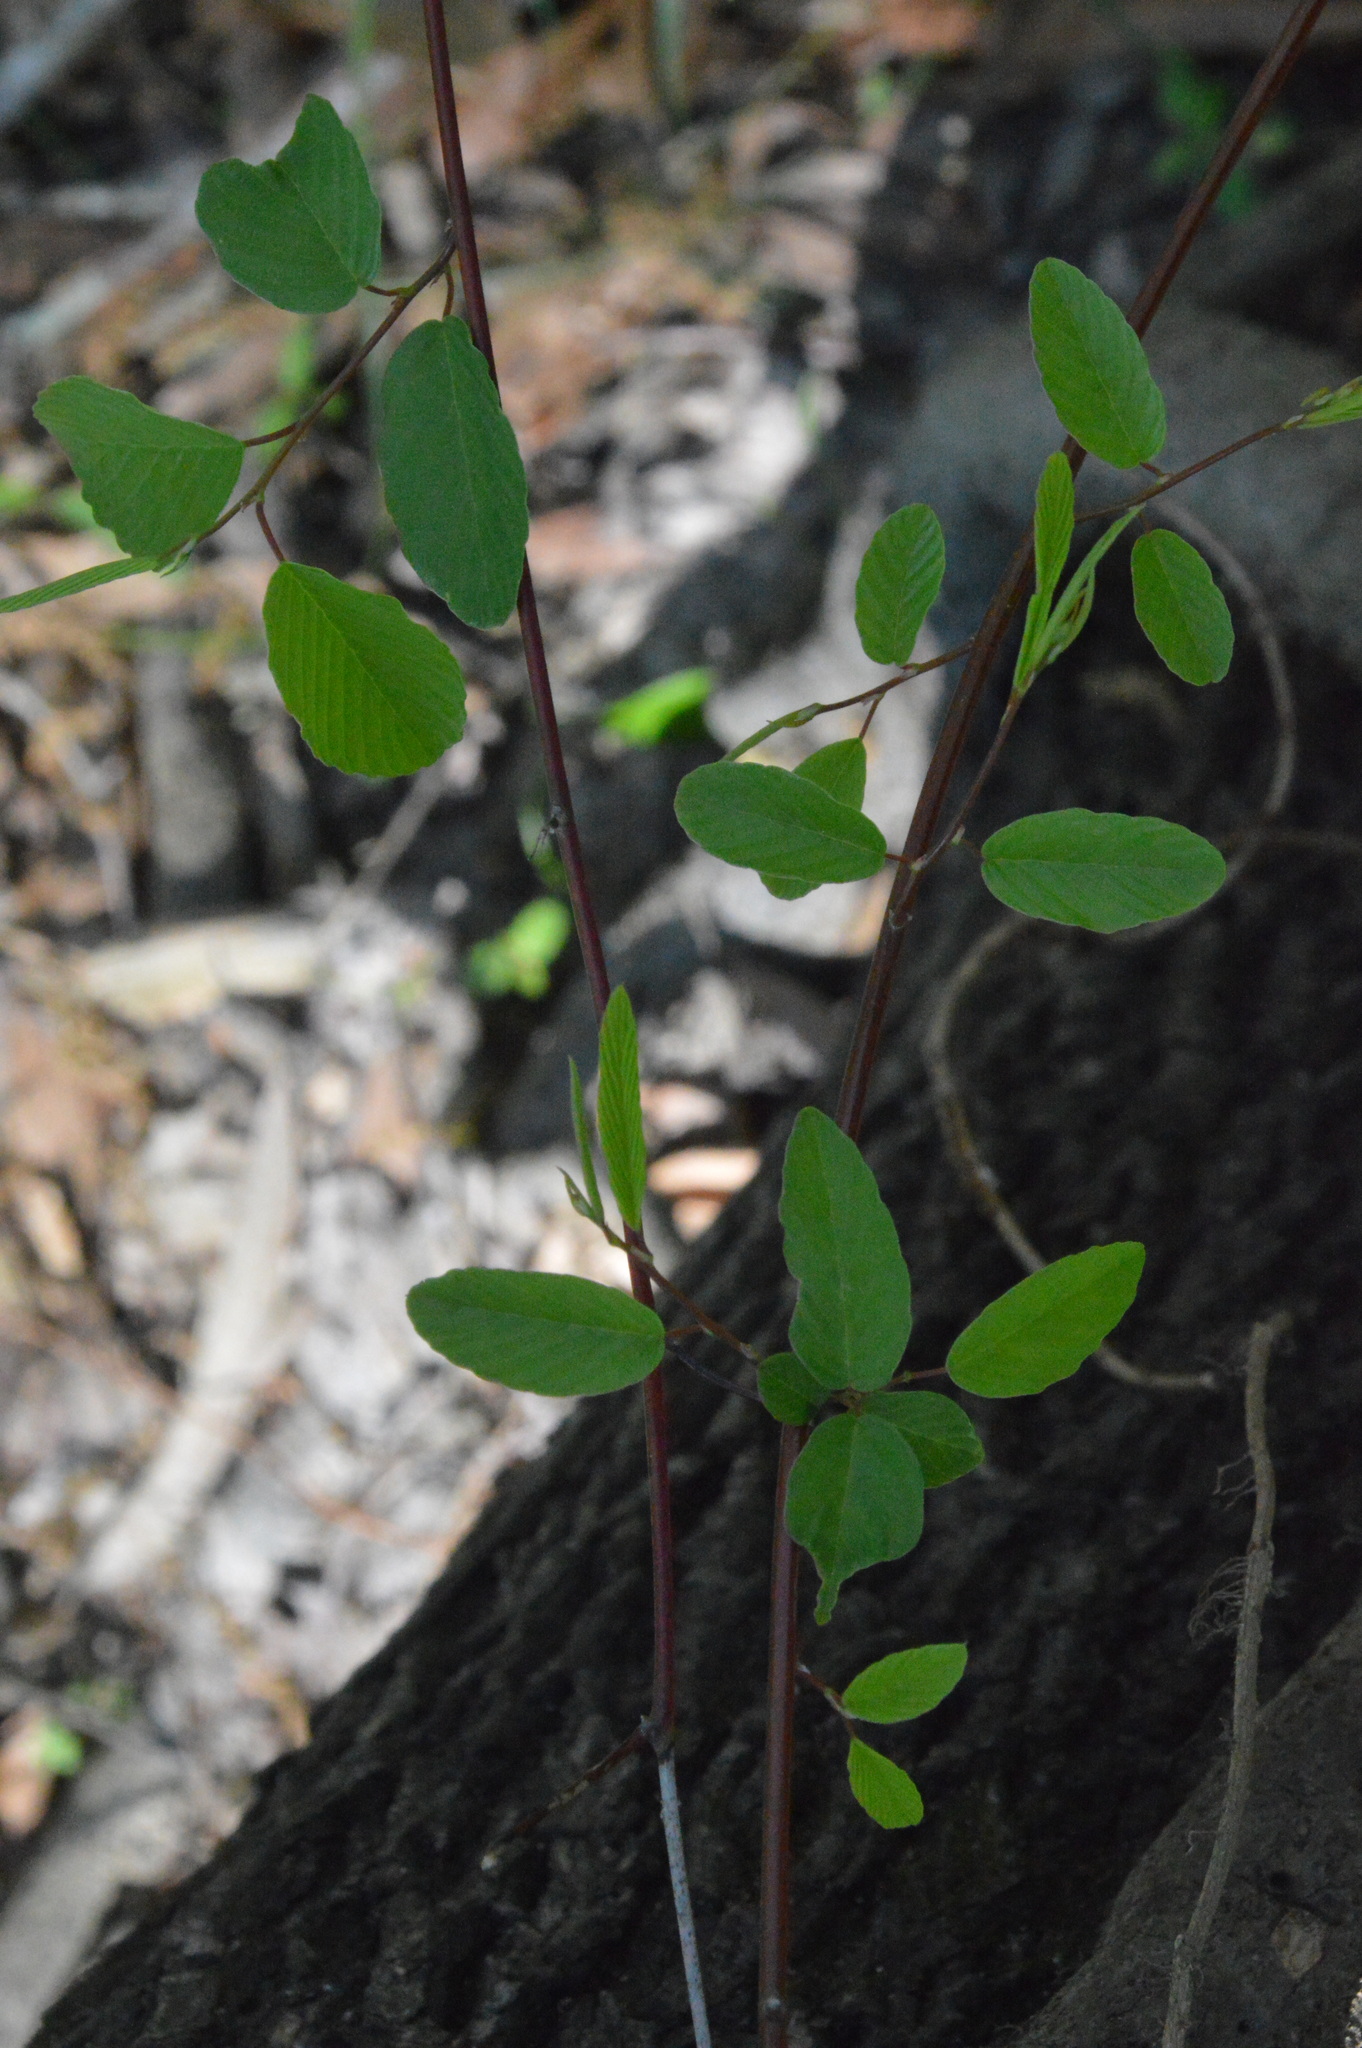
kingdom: Plantae
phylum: Tracheophyta
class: Magnoliopsida
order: Rosales
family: Rhamnaceae
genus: Berchemia
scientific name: Berchemia scandens
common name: Supplejack
